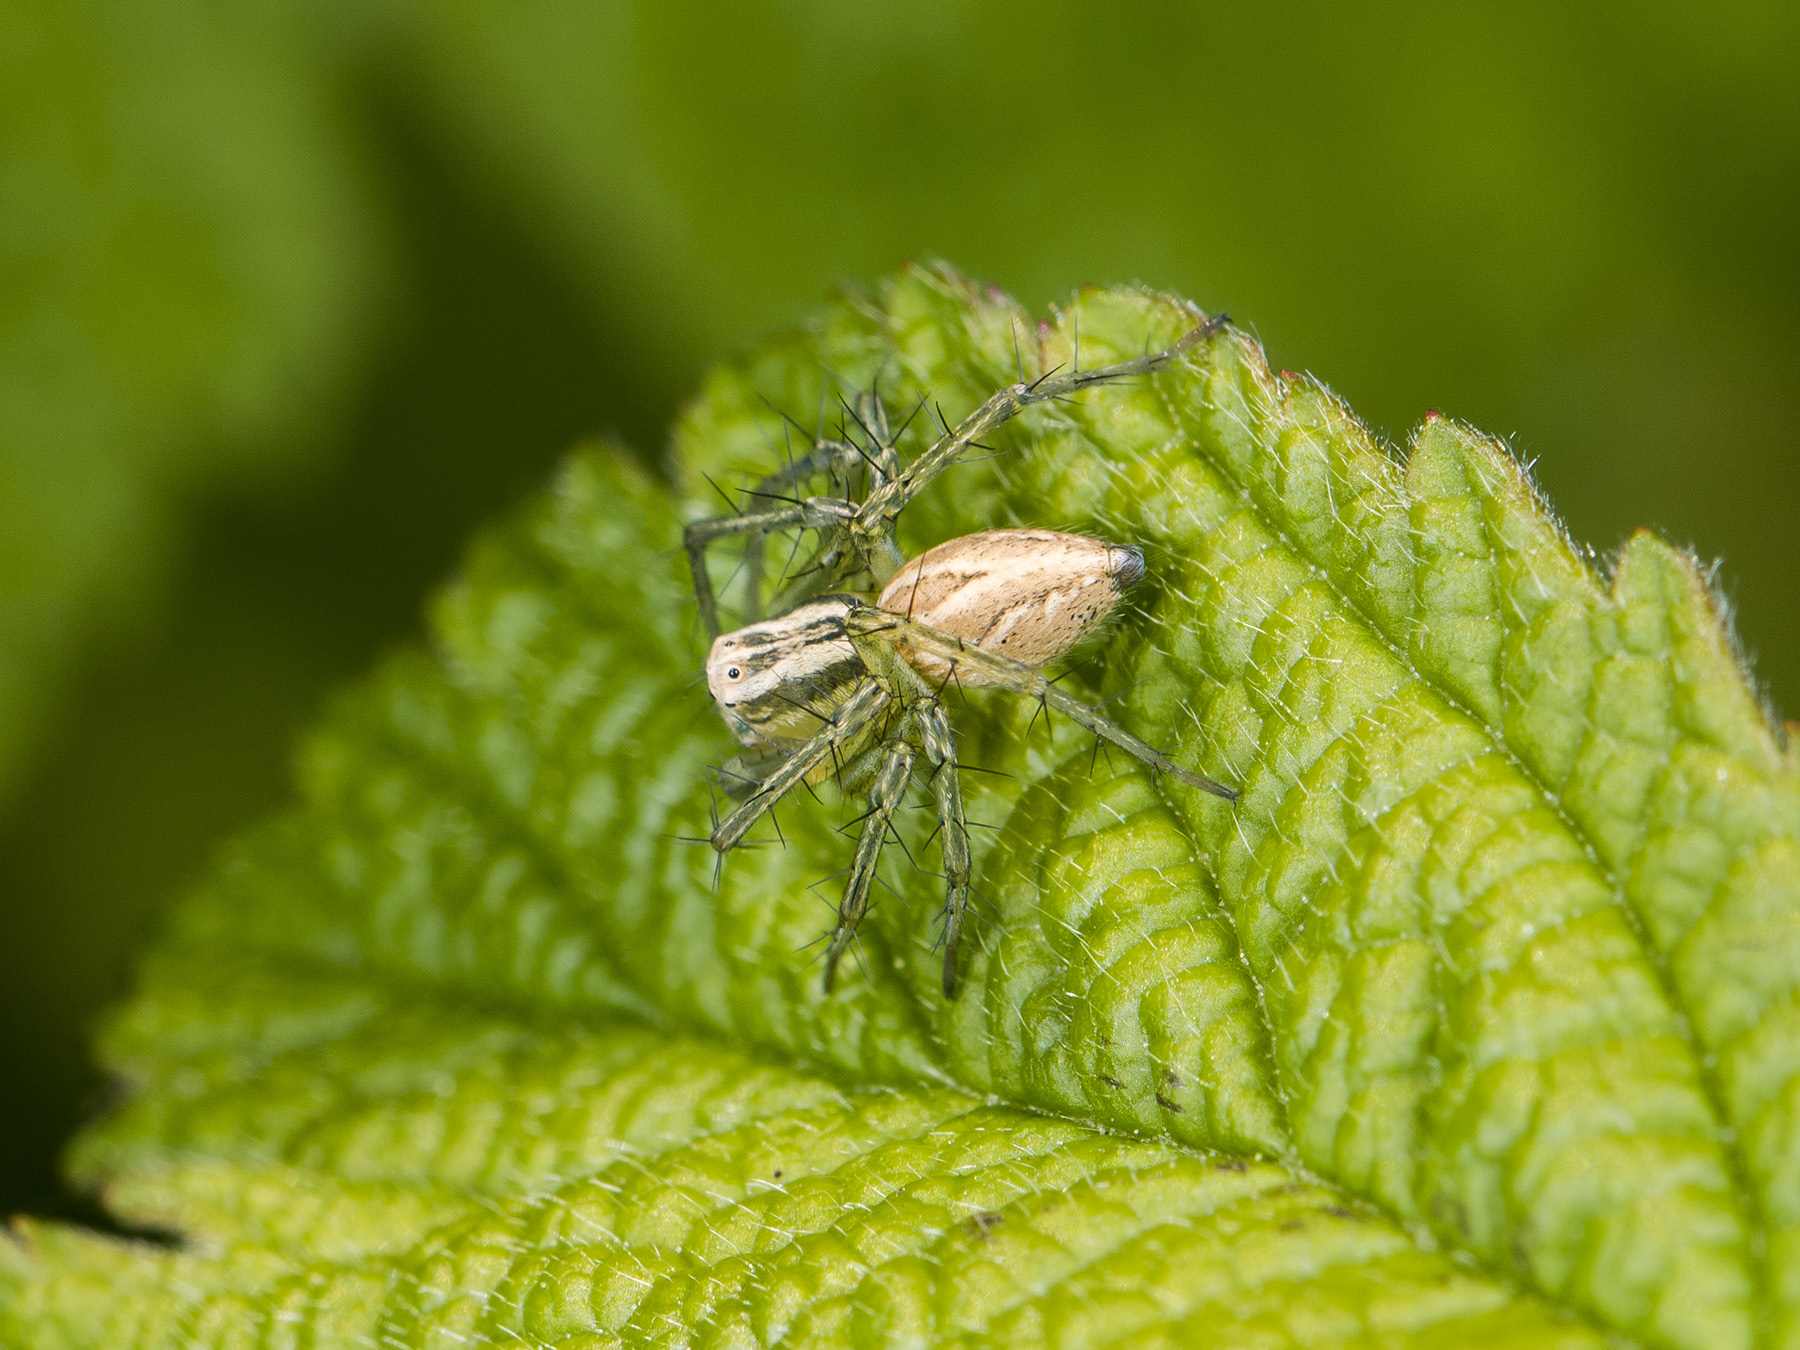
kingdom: Animalia
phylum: Arthropoda
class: Arachnida
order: Araneae
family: Oxyopidae
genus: Oxyopes
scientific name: Oxyopes lineatus
